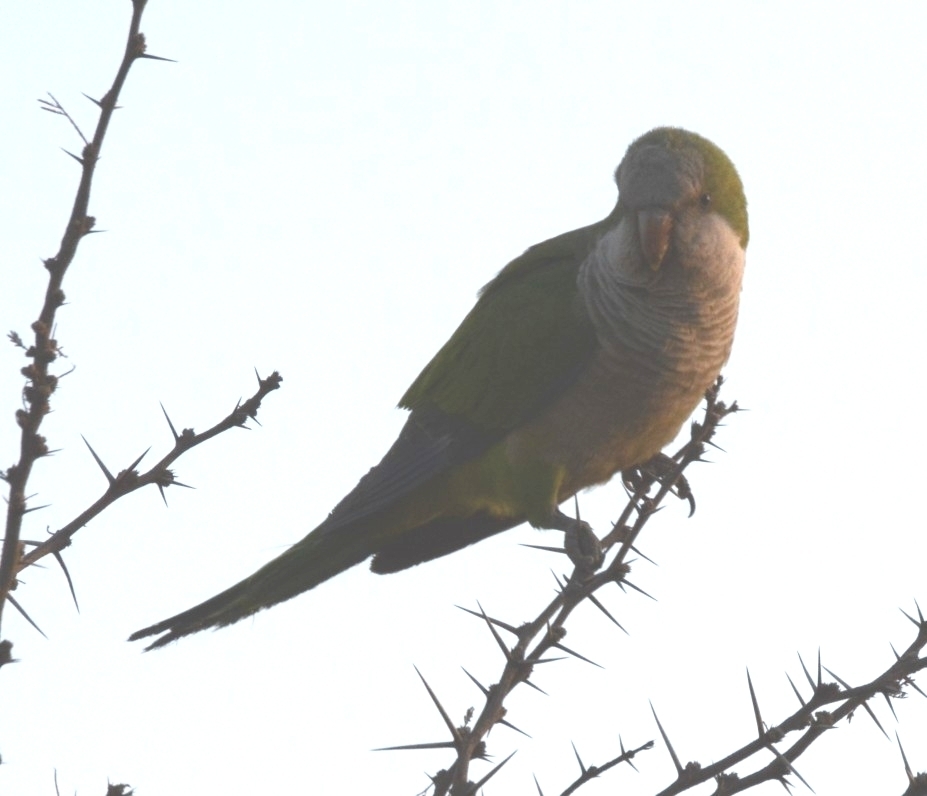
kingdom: Animalia
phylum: Chordata
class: Aves
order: Psittaciformes
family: Psittacidae
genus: Myiopsitta
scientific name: Myiopsitta monachus
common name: Monk parakeet
